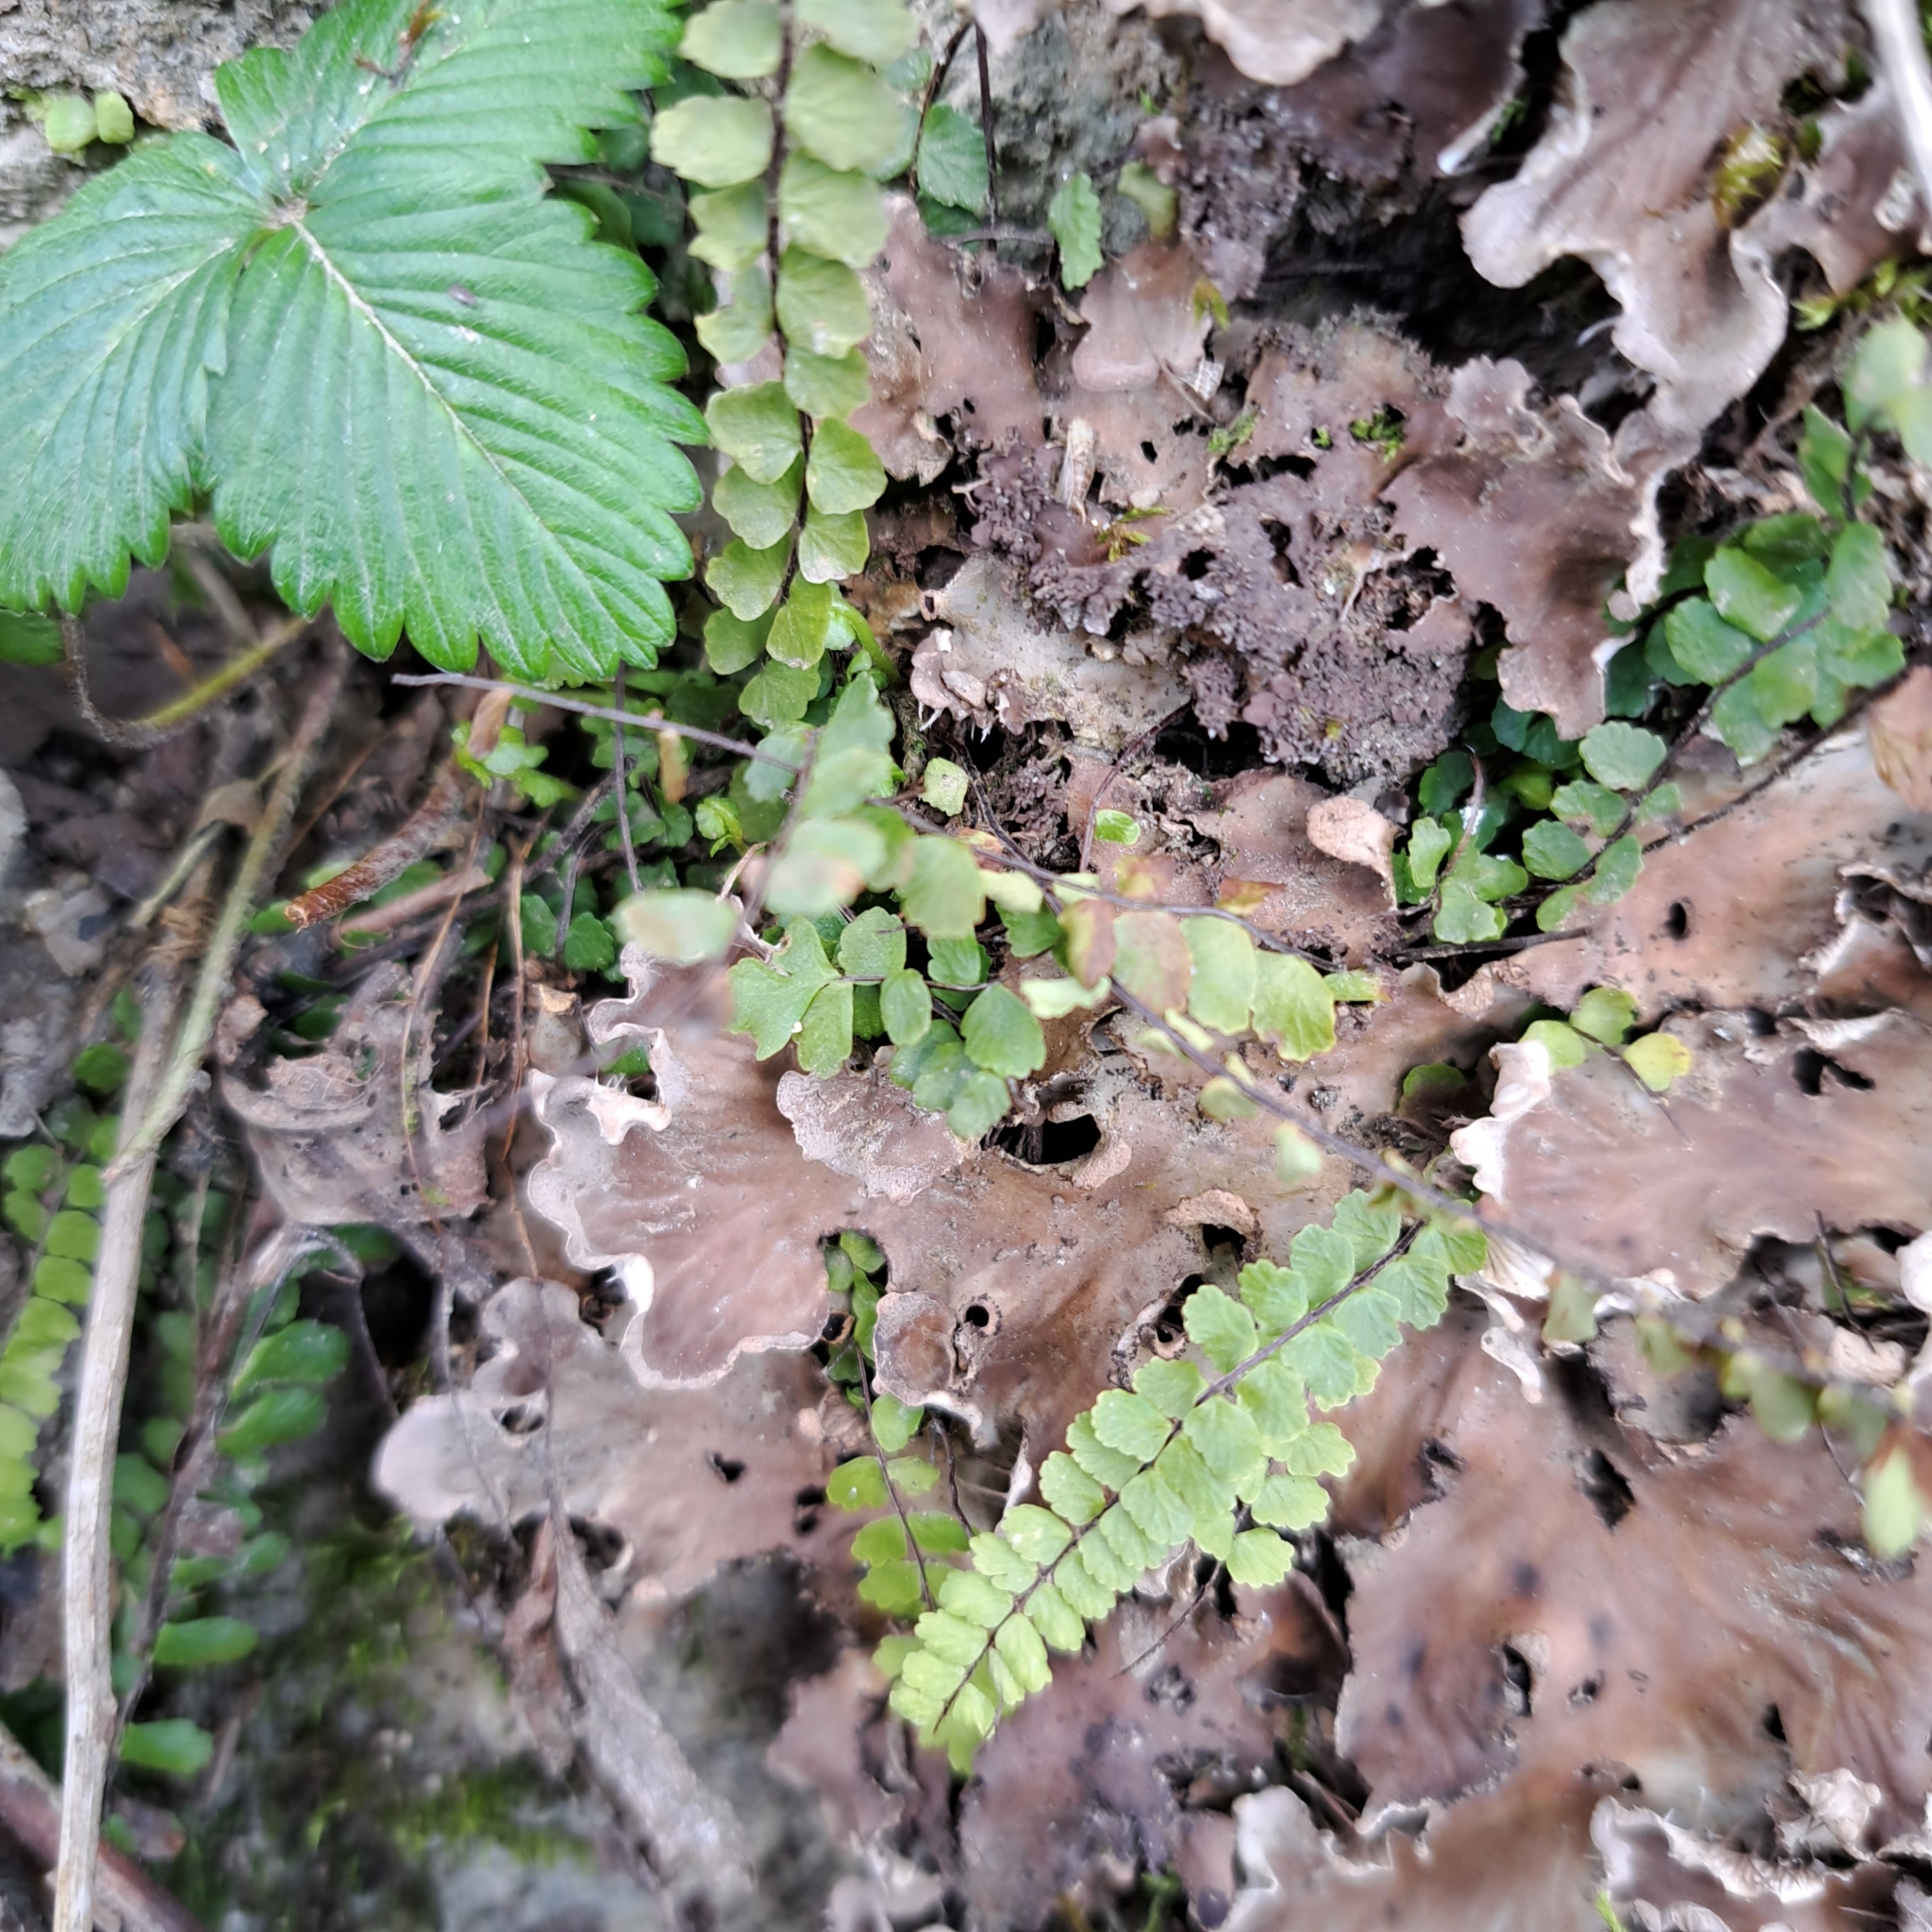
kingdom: Plantae
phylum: Tracheophyta
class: Polypodiopsida
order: Polypodiales
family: Aspleniaceae
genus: Asplenium
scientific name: Asplenium trichomanes
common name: Maidenhair spleenwort
